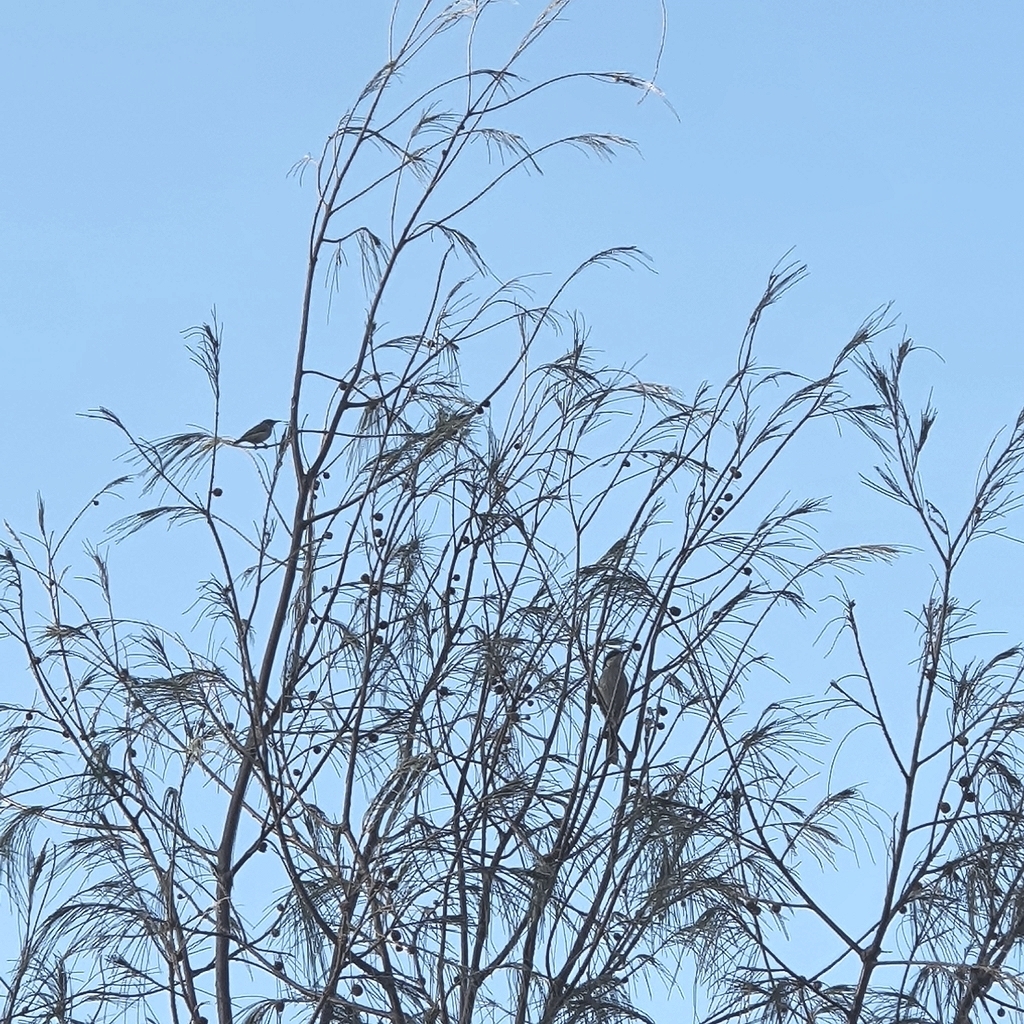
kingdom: Animalia
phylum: Chordata
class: Aves
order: Passeriformes
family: Meliphagidae
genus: Gavicalis
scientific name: Gavicalis virescens
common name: Singing honeyeater
